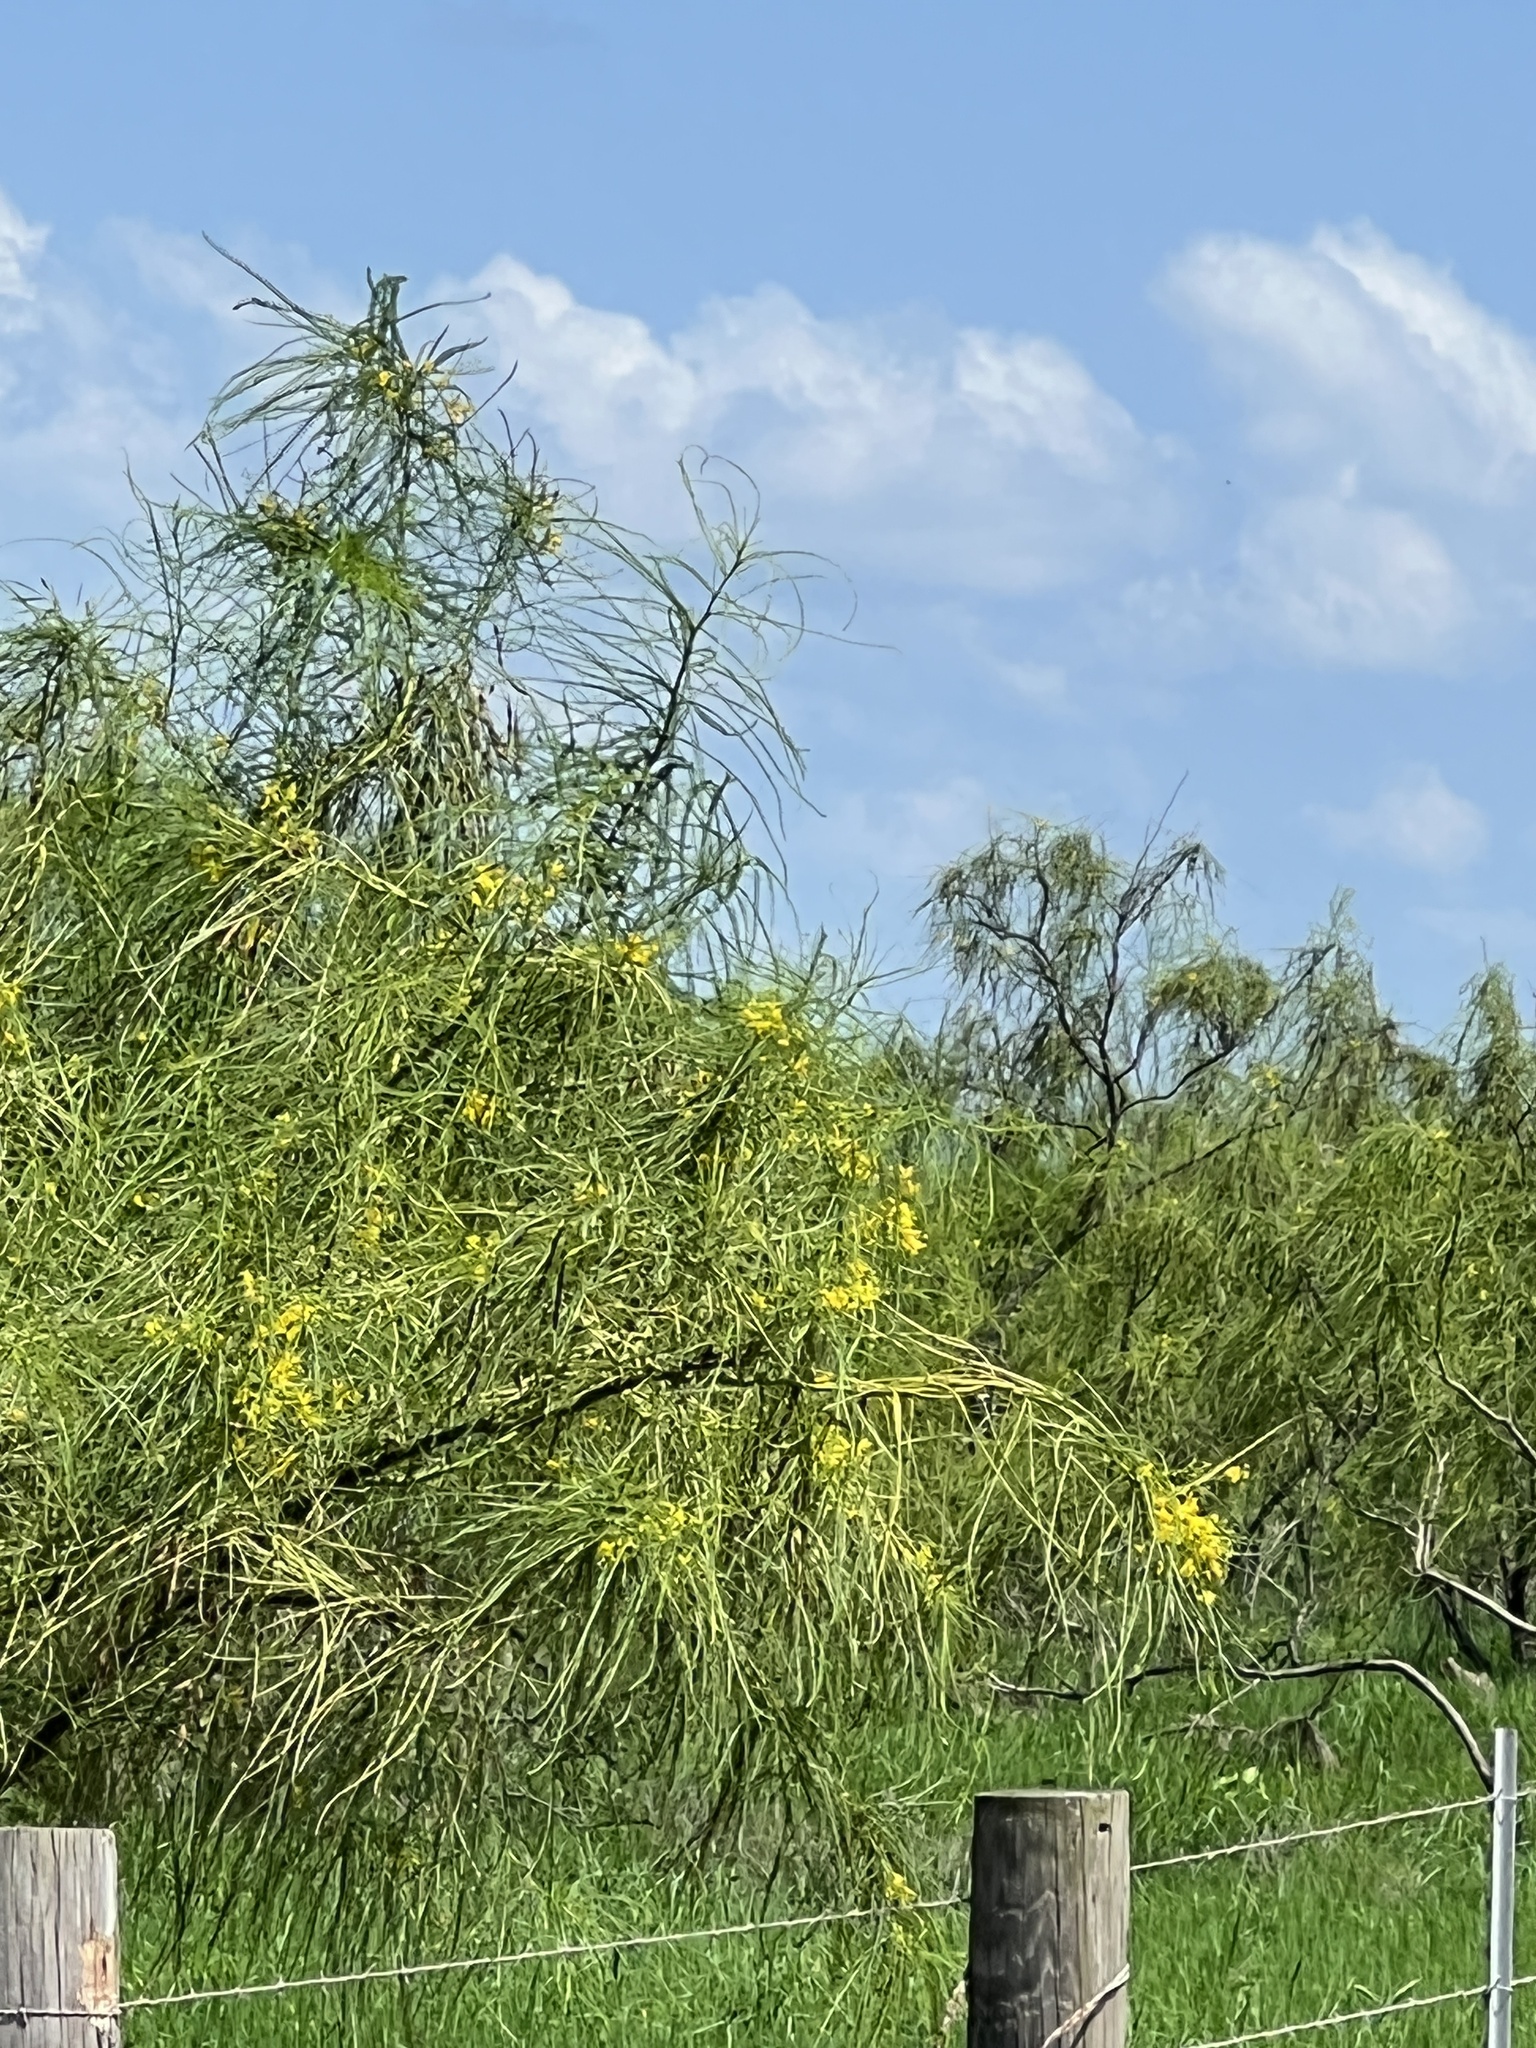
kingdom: Plantae
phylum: Tracheophyta
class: Magnoliopsida
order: Fabales
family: Fabaceae
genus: Parkinsonia
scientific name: Parkinsonia aculeata
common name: Jerusalem thorn
